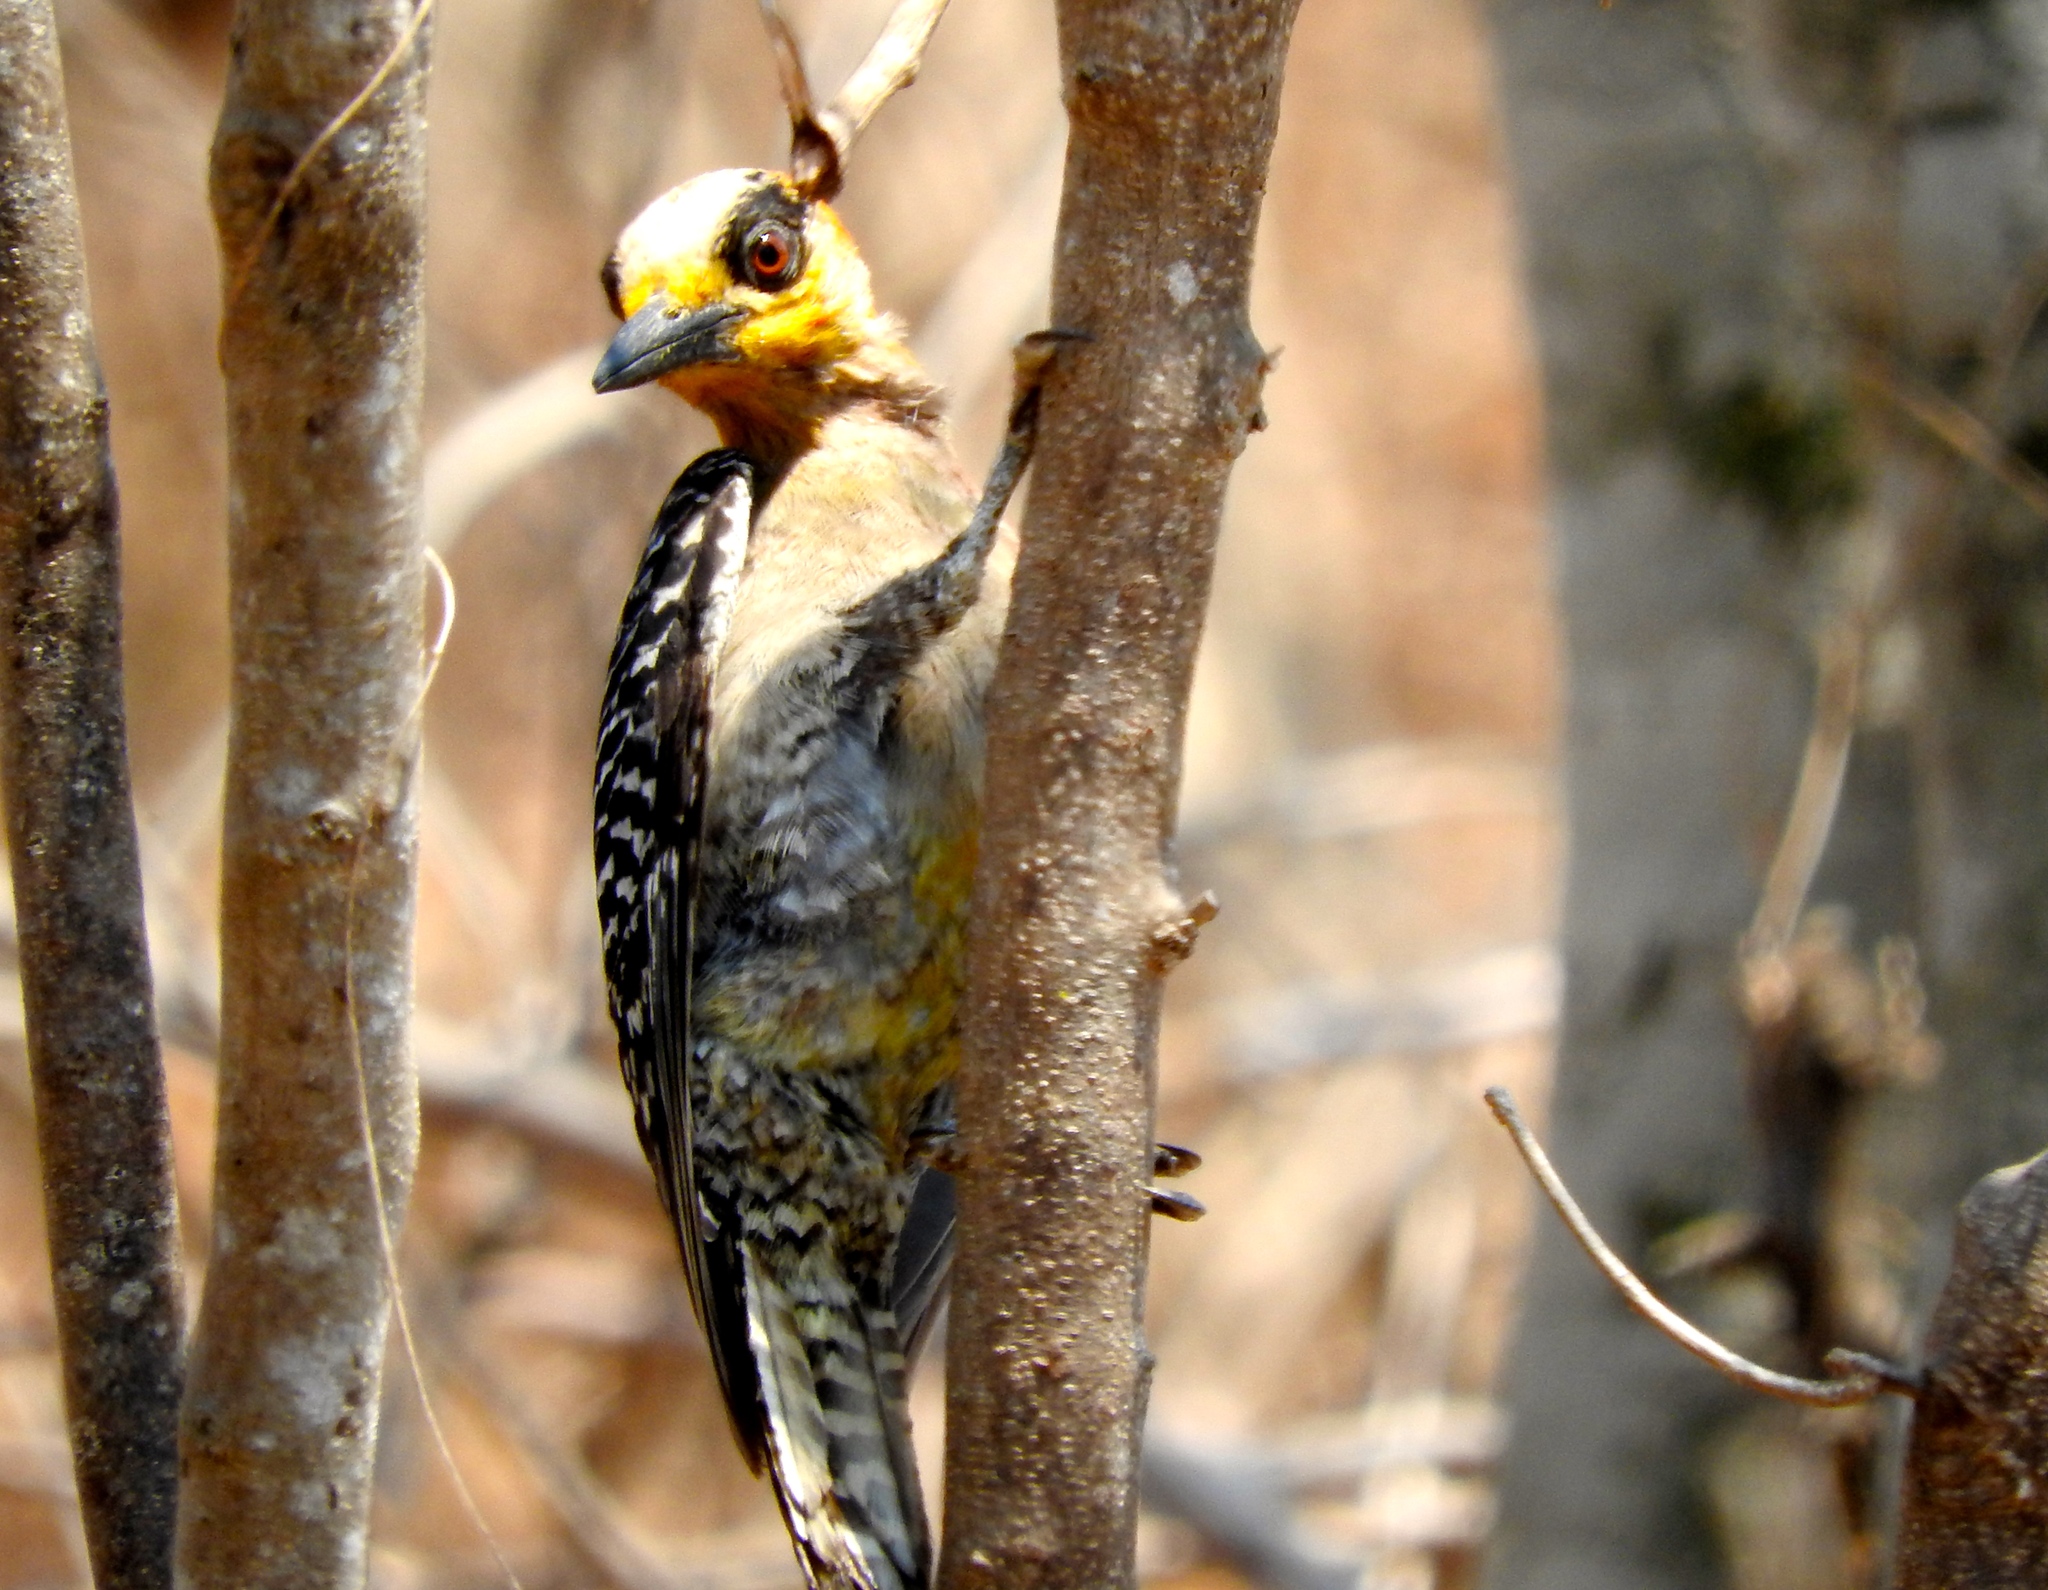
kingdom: Animalia
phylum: Chordata
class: Aves
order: Piciformes
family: Picidae
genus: Melanerpes
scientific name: Melanerpes chrysogenys
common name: Golden-cheeked woodpecker
